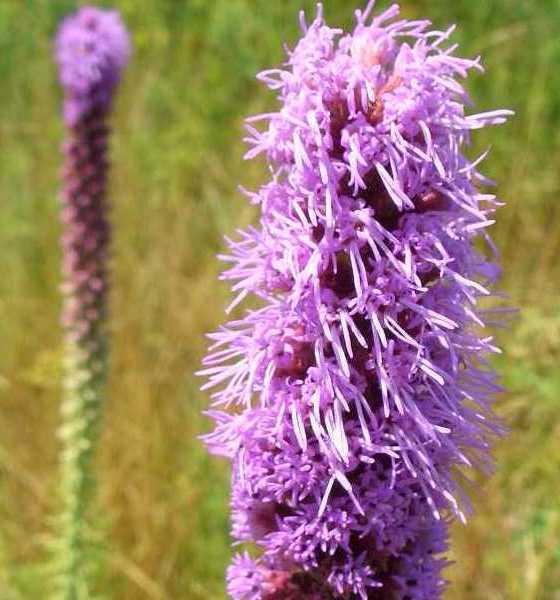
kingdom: Plantae
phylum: Tracheophyta
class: Magnoliopsida
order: Asterales
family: Asteraceae
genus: Liatris
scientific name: Liatris pycnostachya
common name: Cattail gayfeather
